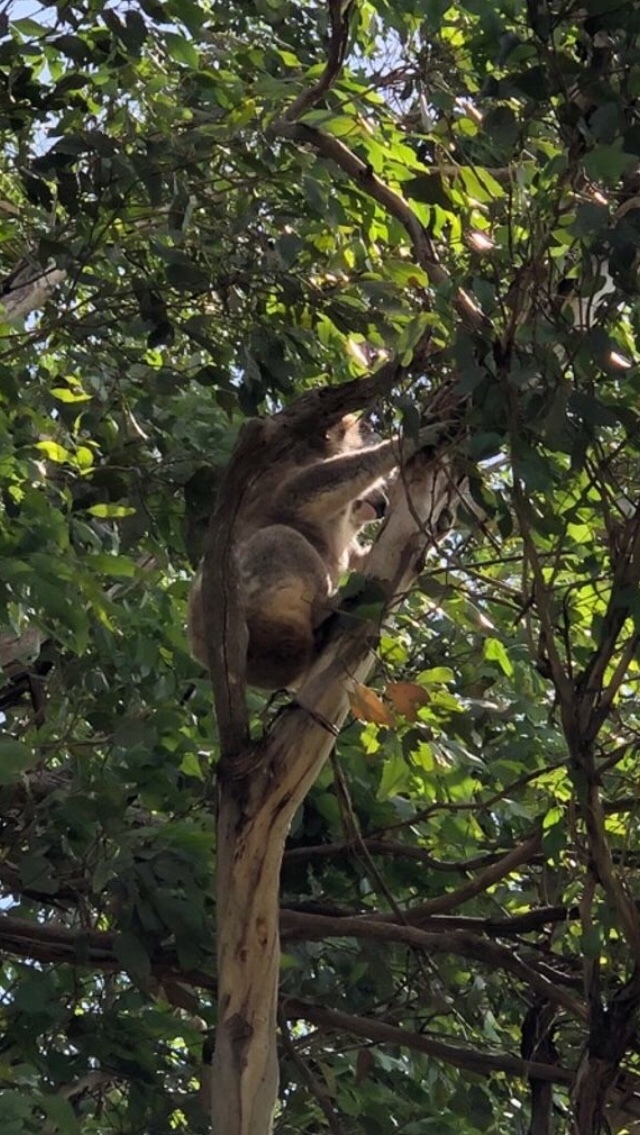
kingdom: Animalia
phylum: Chordata
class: Mammalia
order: Diprotodontia
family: Phascolarctidae
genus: Phascolarctos
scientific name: Phascolarctos cinereus
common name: Koala
